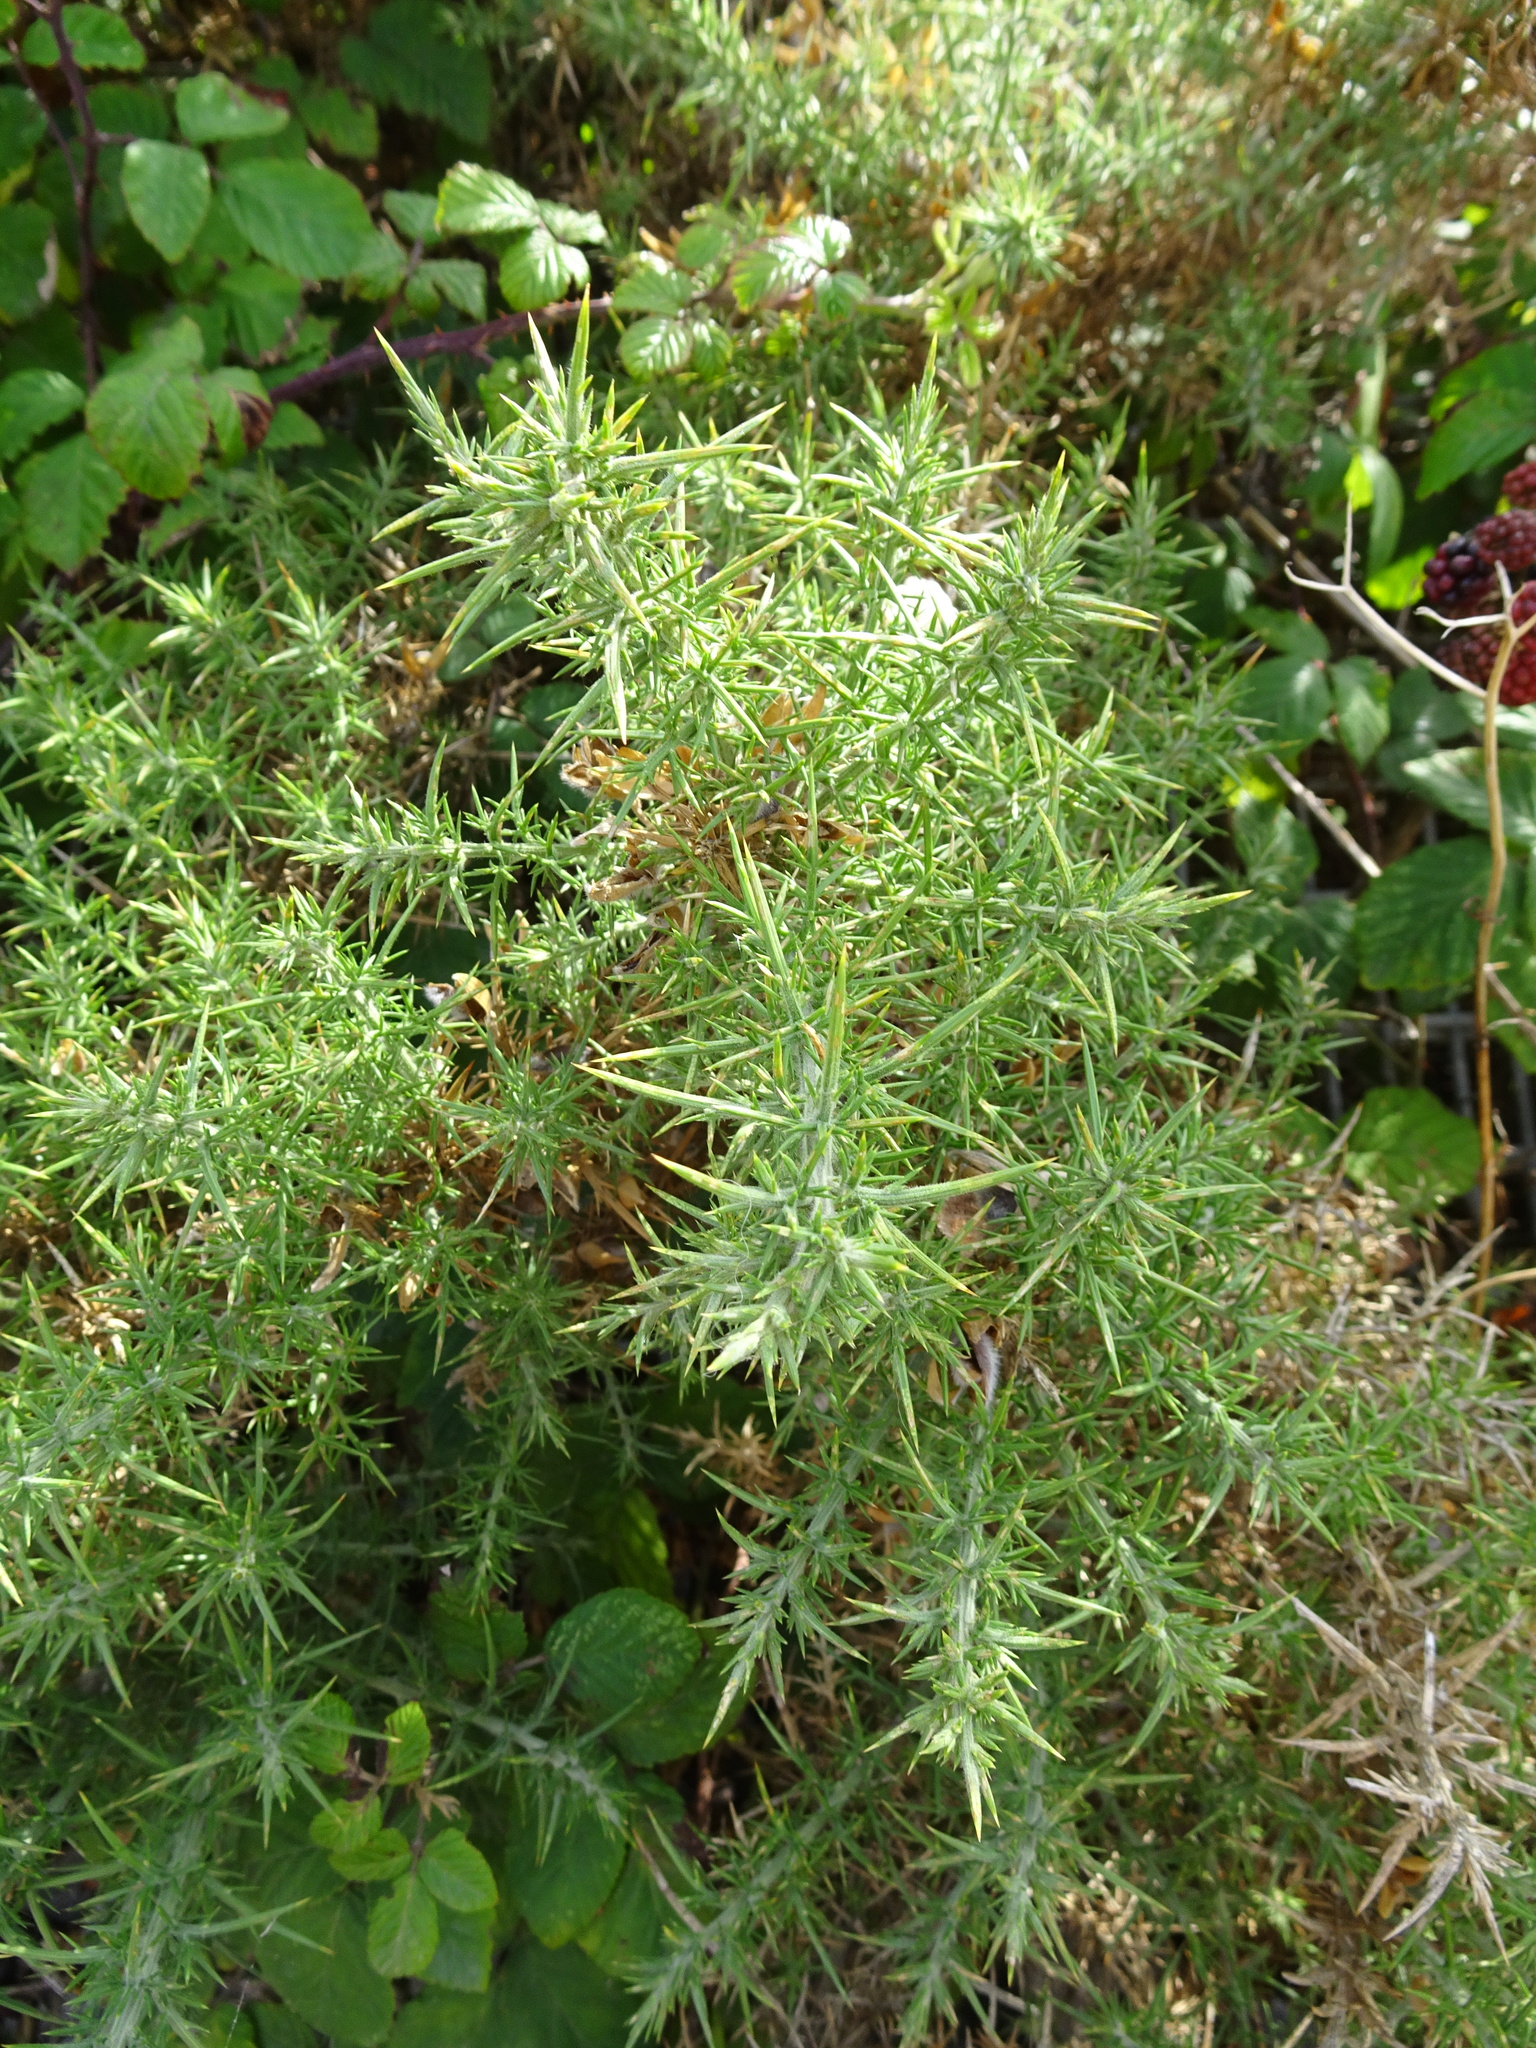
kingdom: Plantae
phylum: Tracheophyta
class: Magnoliopsida
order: Fabales
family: Fabaceae
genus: Ulex
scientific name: Ulex europaeus
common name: Common gorse
